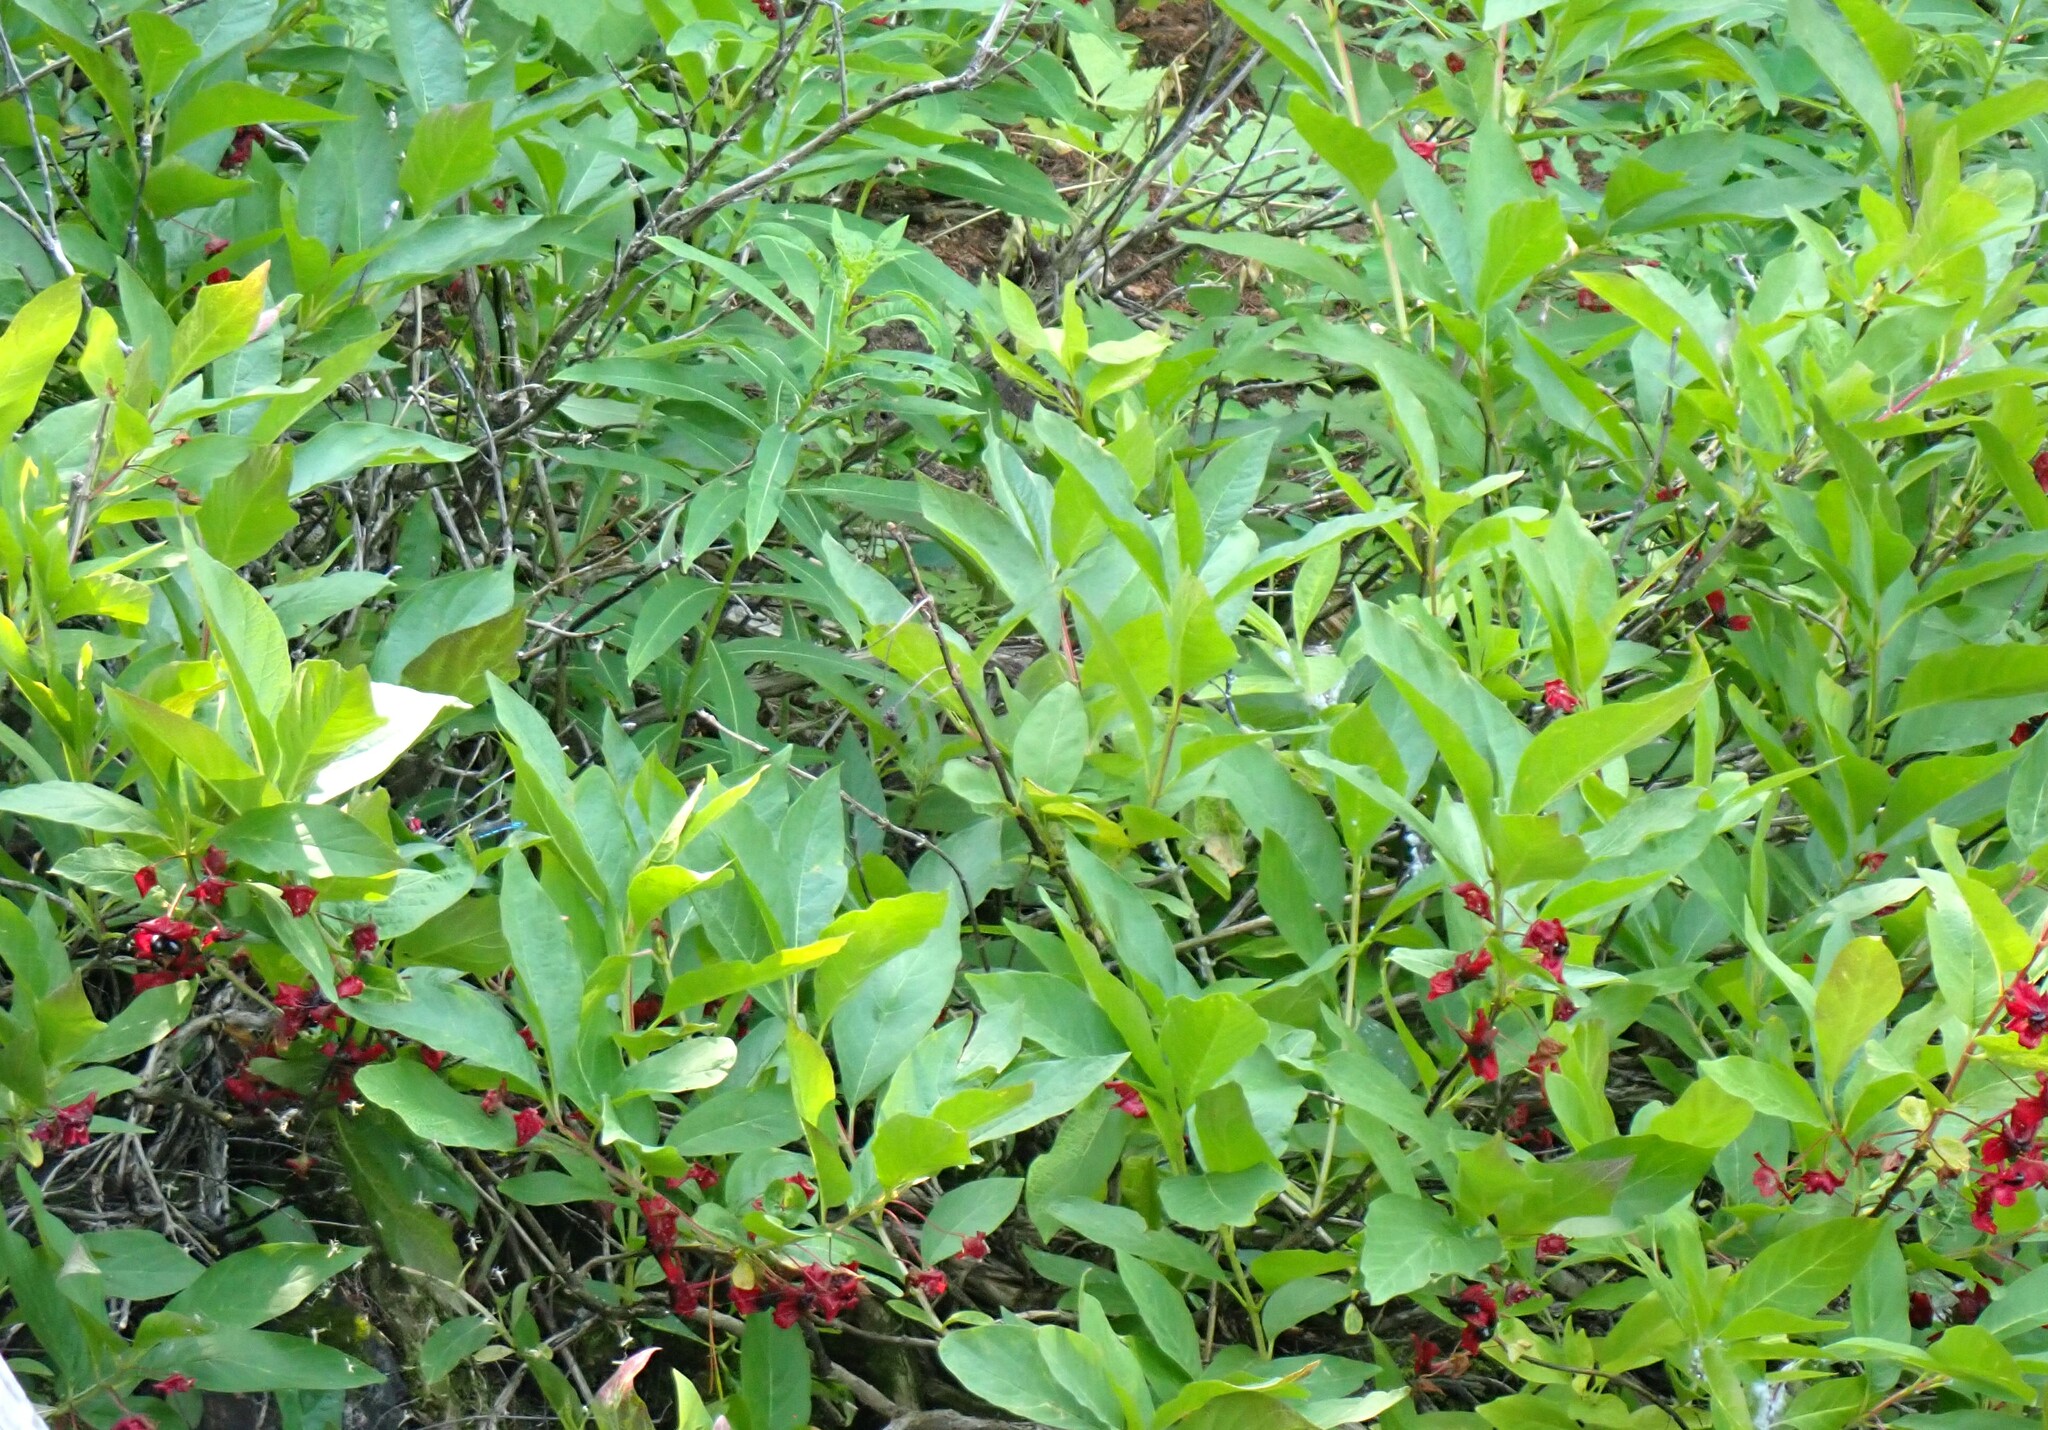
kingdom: Plantae
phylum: Tracheophyta
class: Magnoliopsida
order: Dipsacales
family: Caprifoliaceae
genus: Lonicera
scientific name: Lonicera involucrata
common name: Californian honeysuckle
